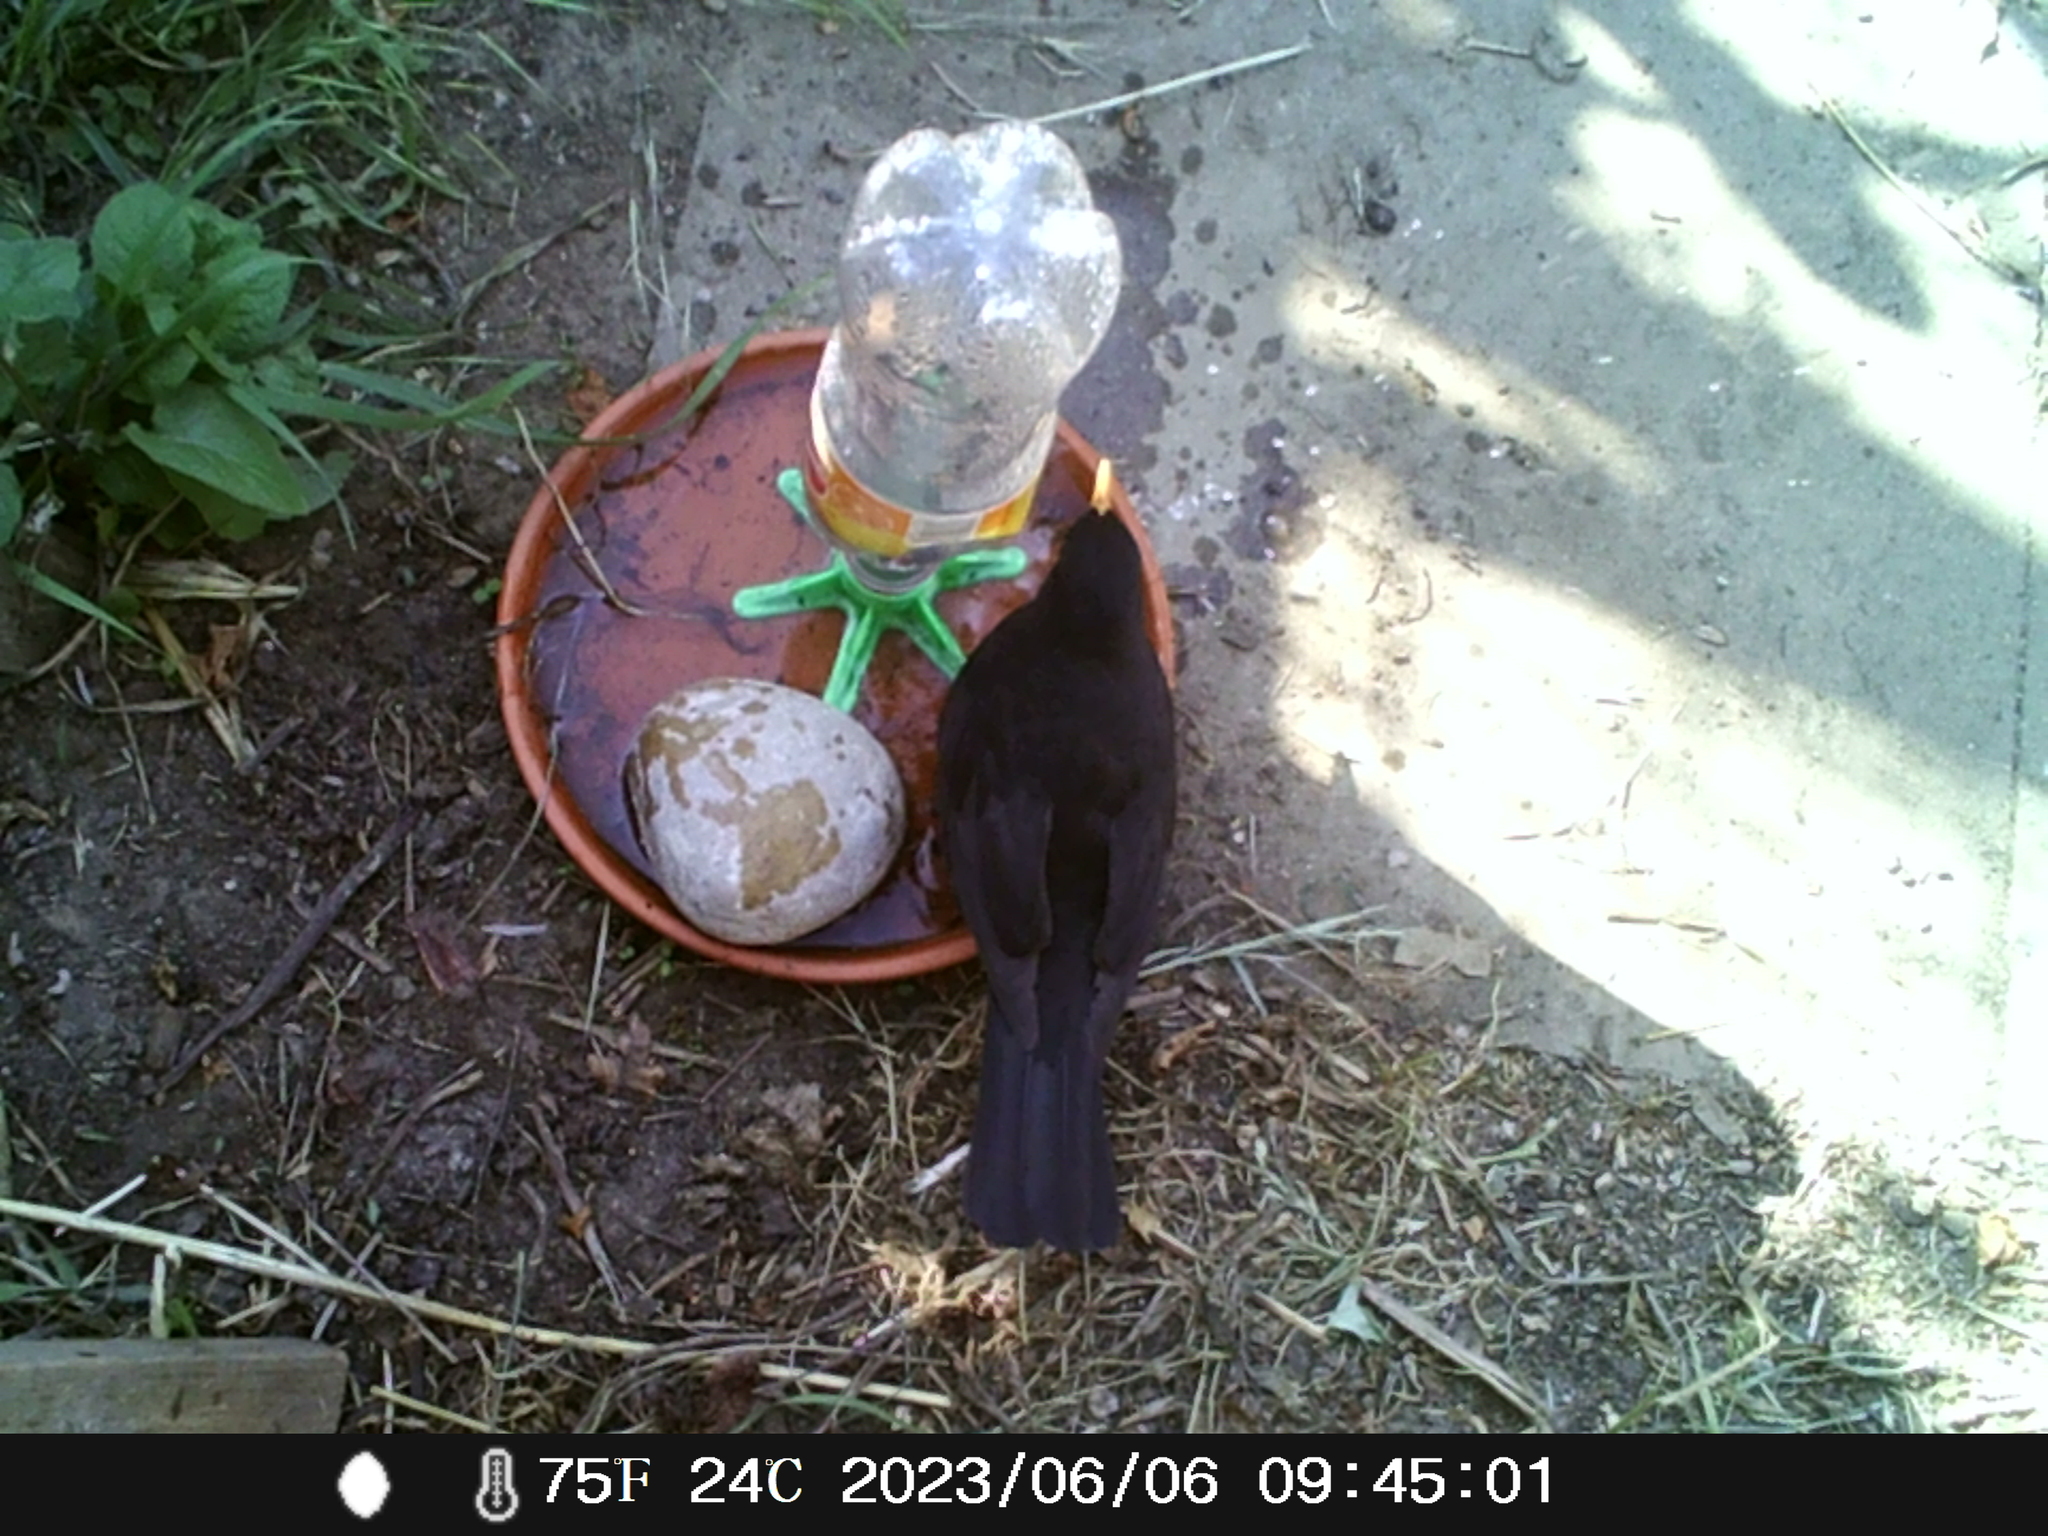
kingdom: Animalia
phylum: Chordata
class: Aves
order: Passeriformes
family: Turdidae
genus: Turdus
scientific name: Turdus merula
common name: Common blackbird
